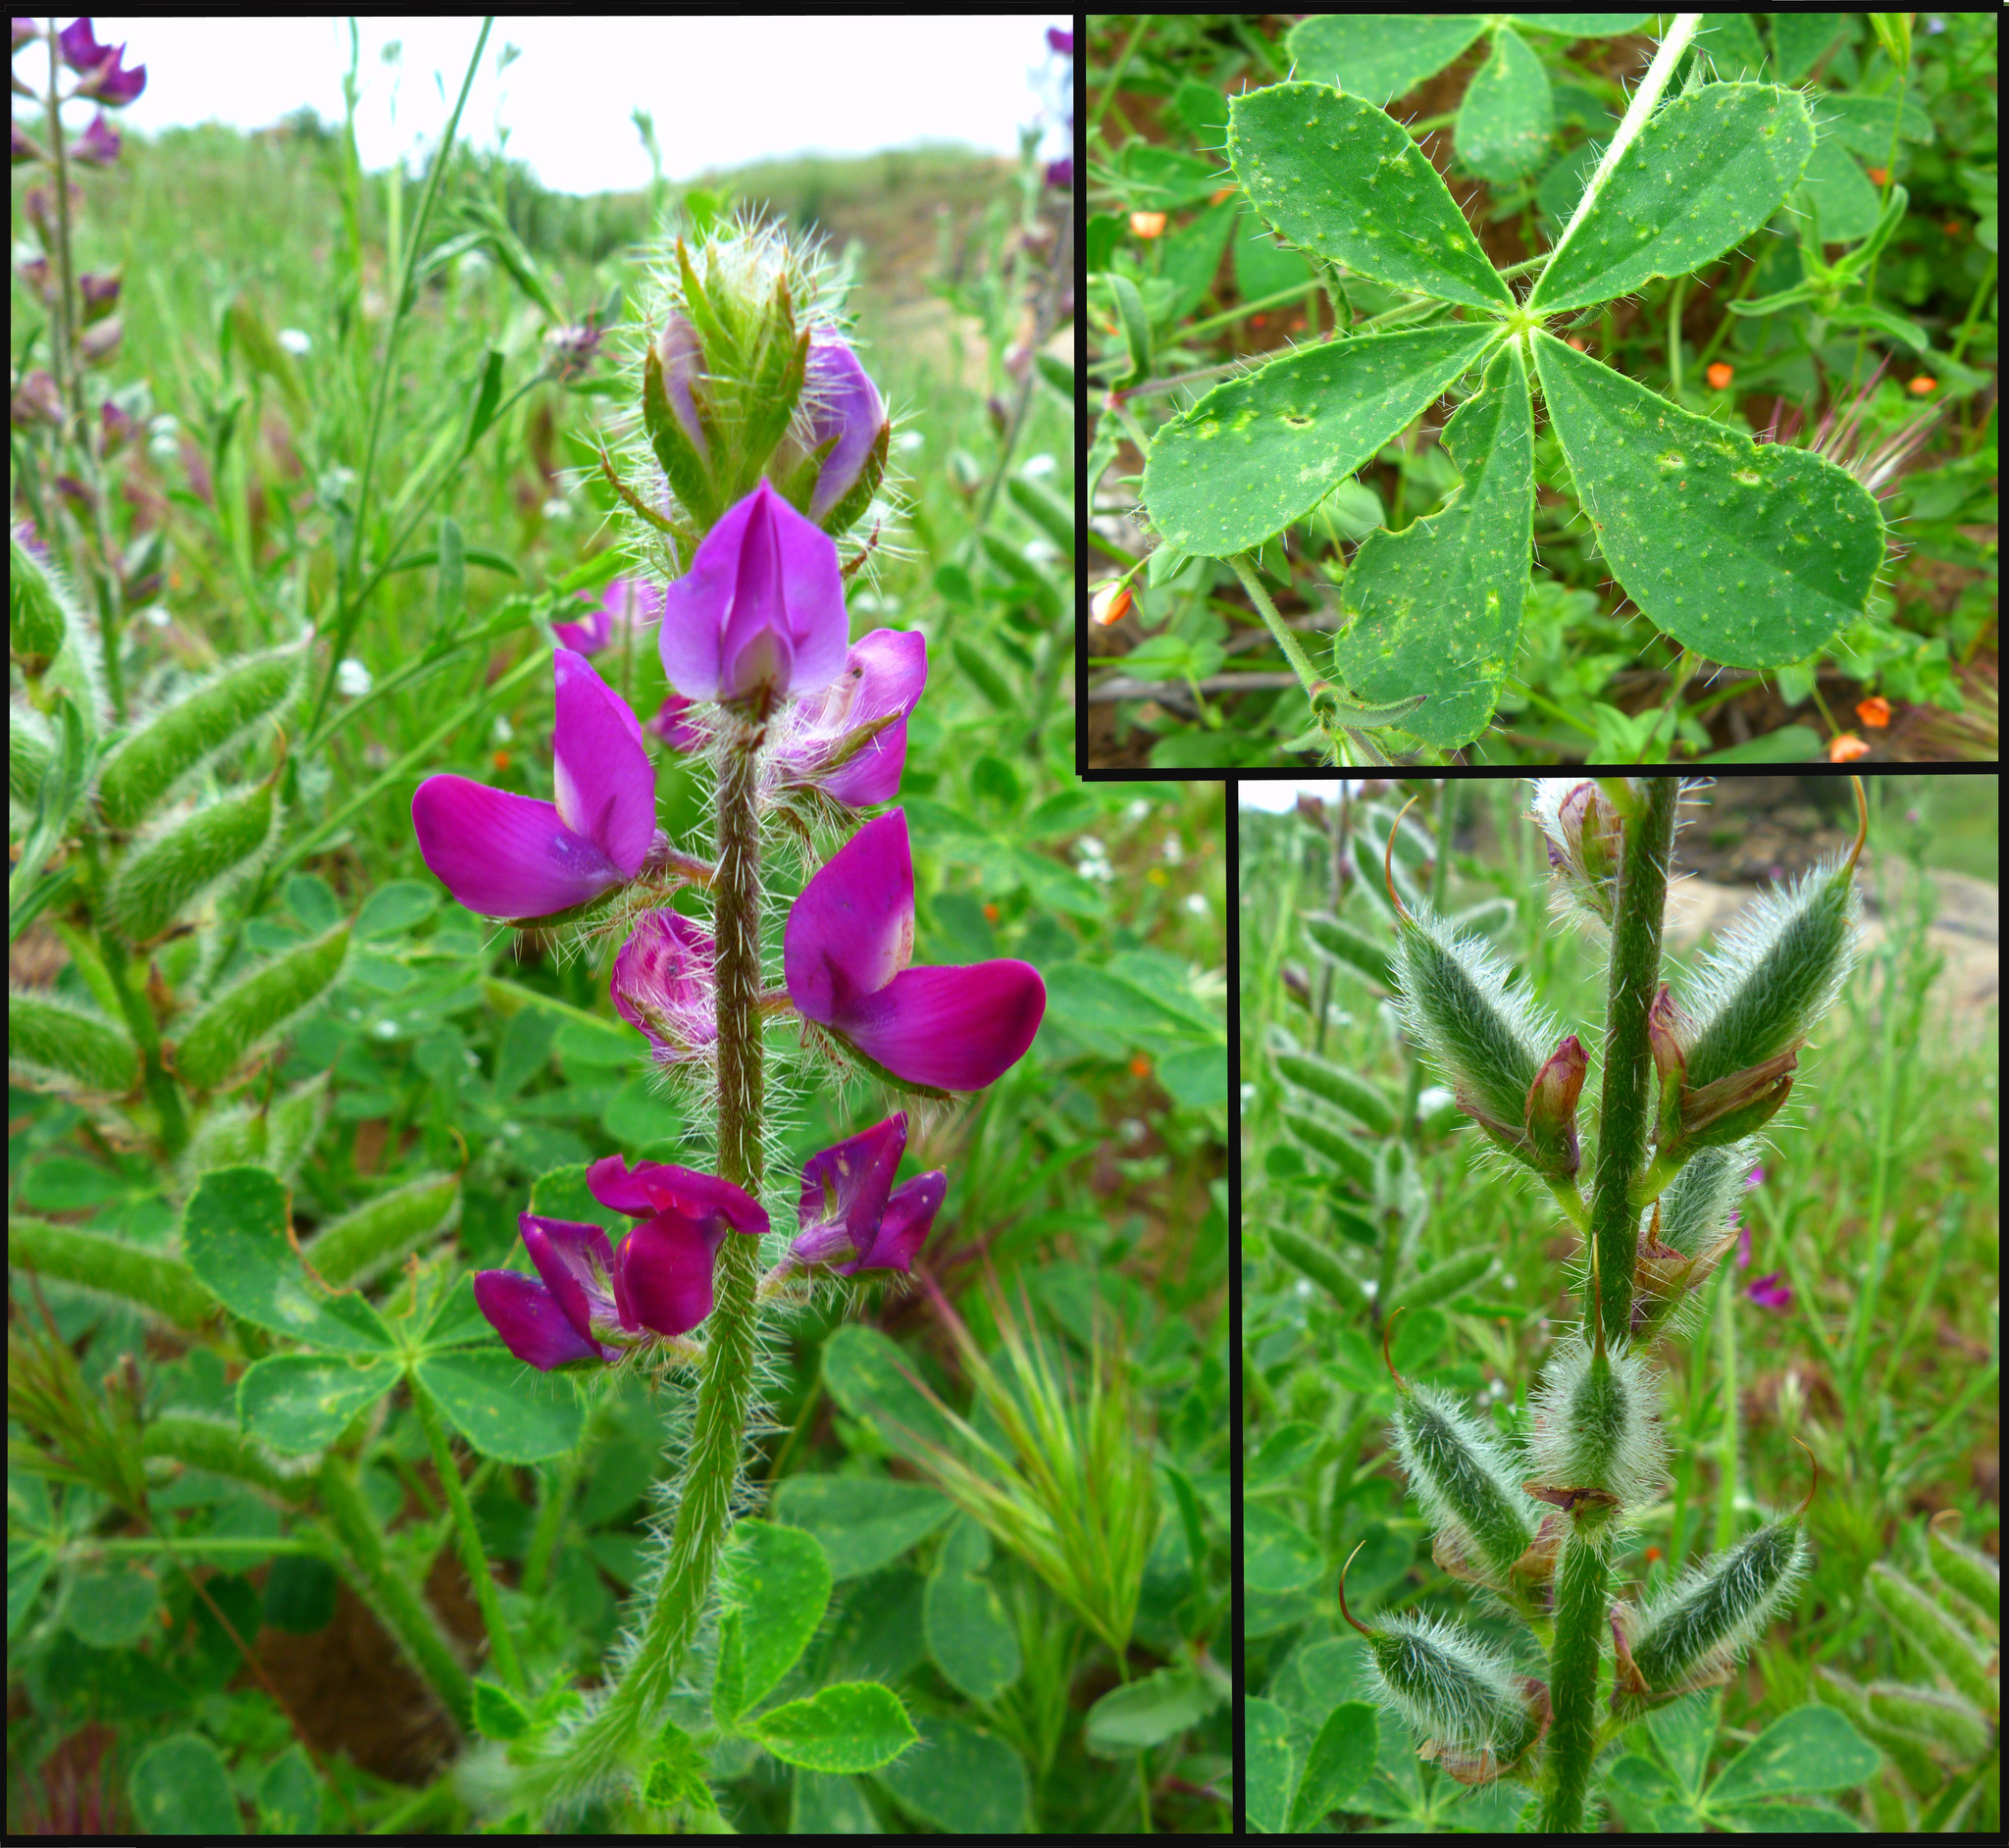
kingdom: Plantae
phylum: Tracheophyta
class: Magnoliopsida
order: Fabales
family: Fabaceae
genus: Lupinus
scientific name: Lupinus hirsutissimus
